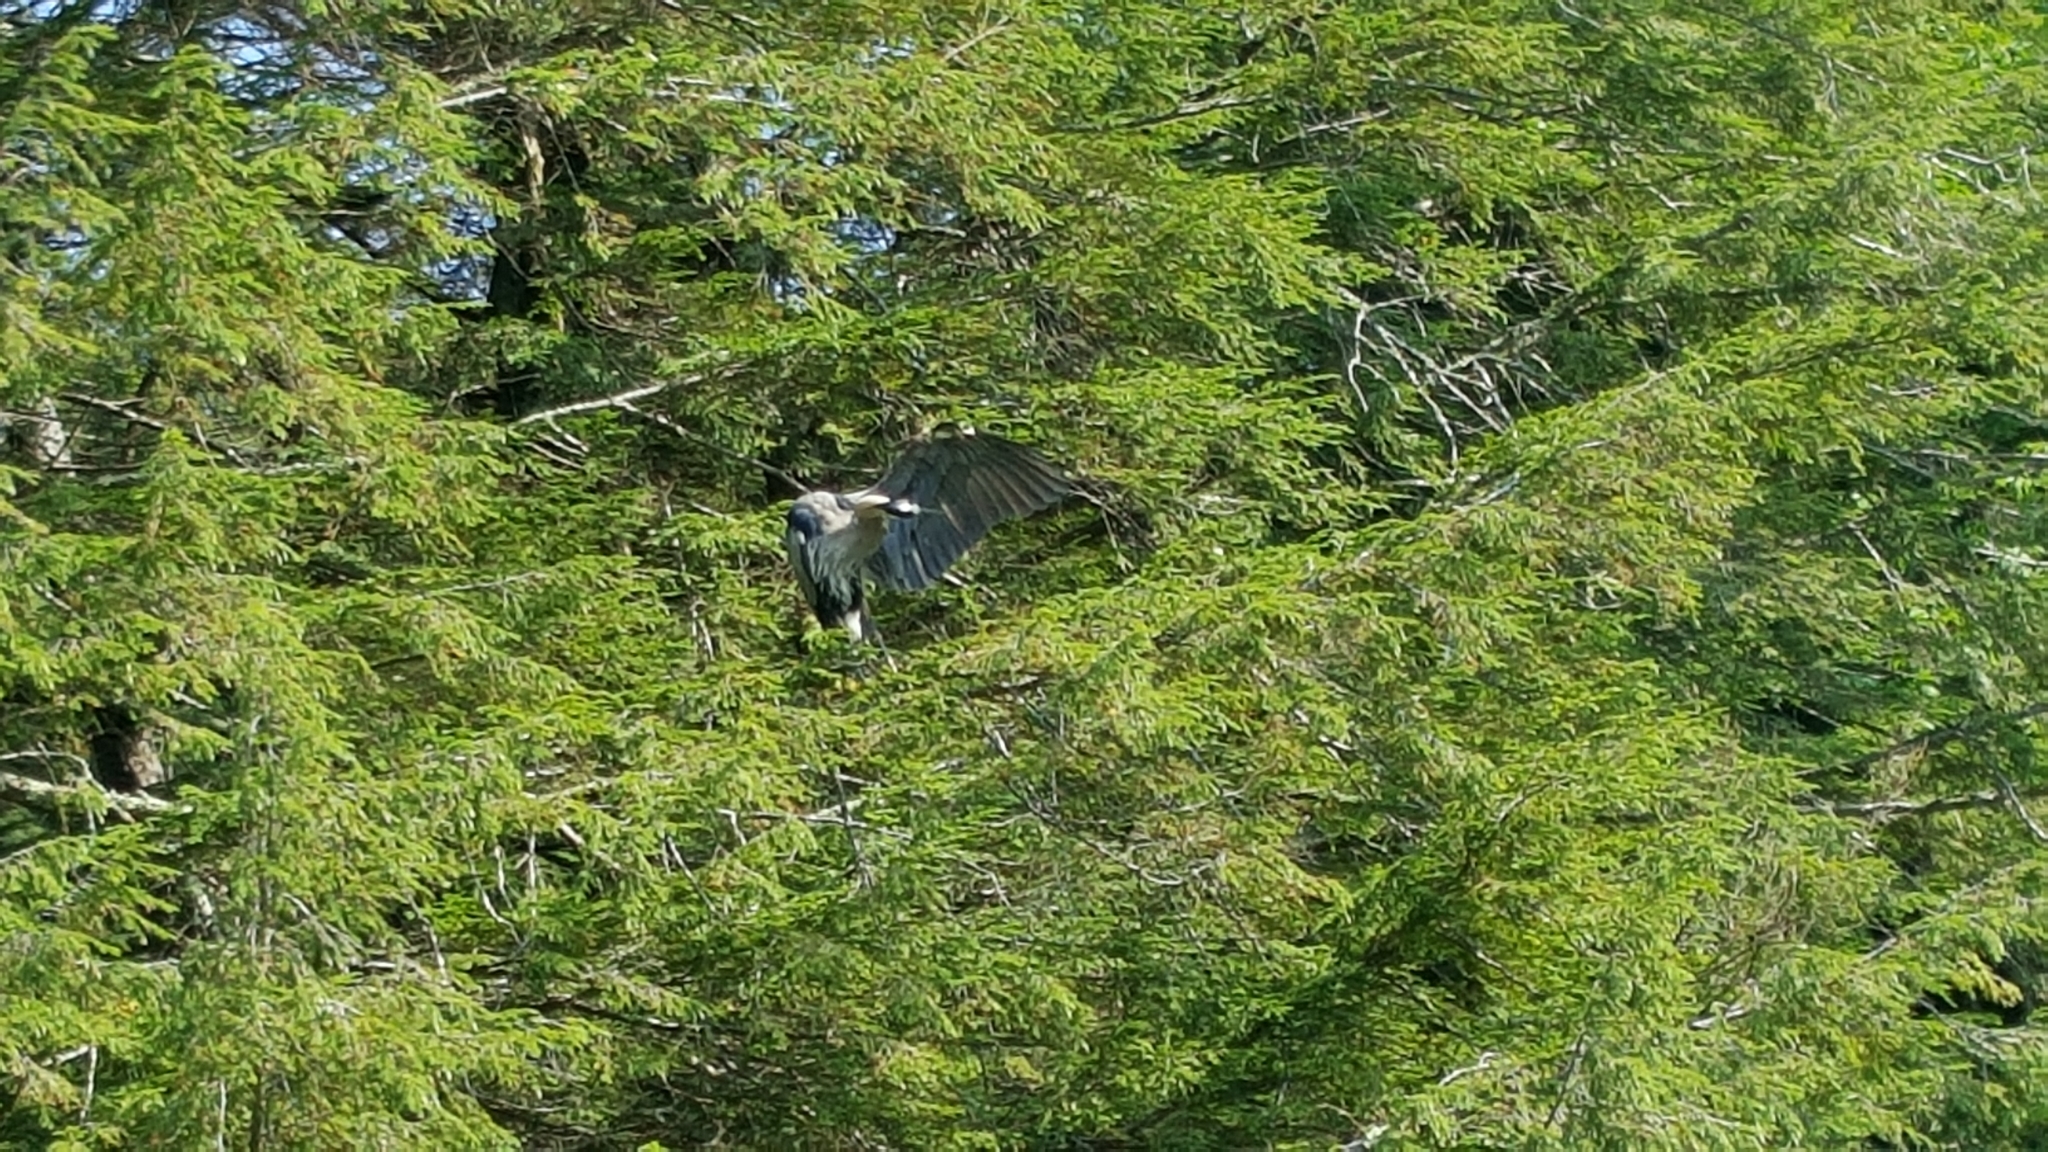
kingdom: Animalia
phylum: Chordata
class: Aves
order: Pelecaniformes
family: Ardeidae
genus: Ardea
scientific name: Ardea herodias
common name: Great blue heron
